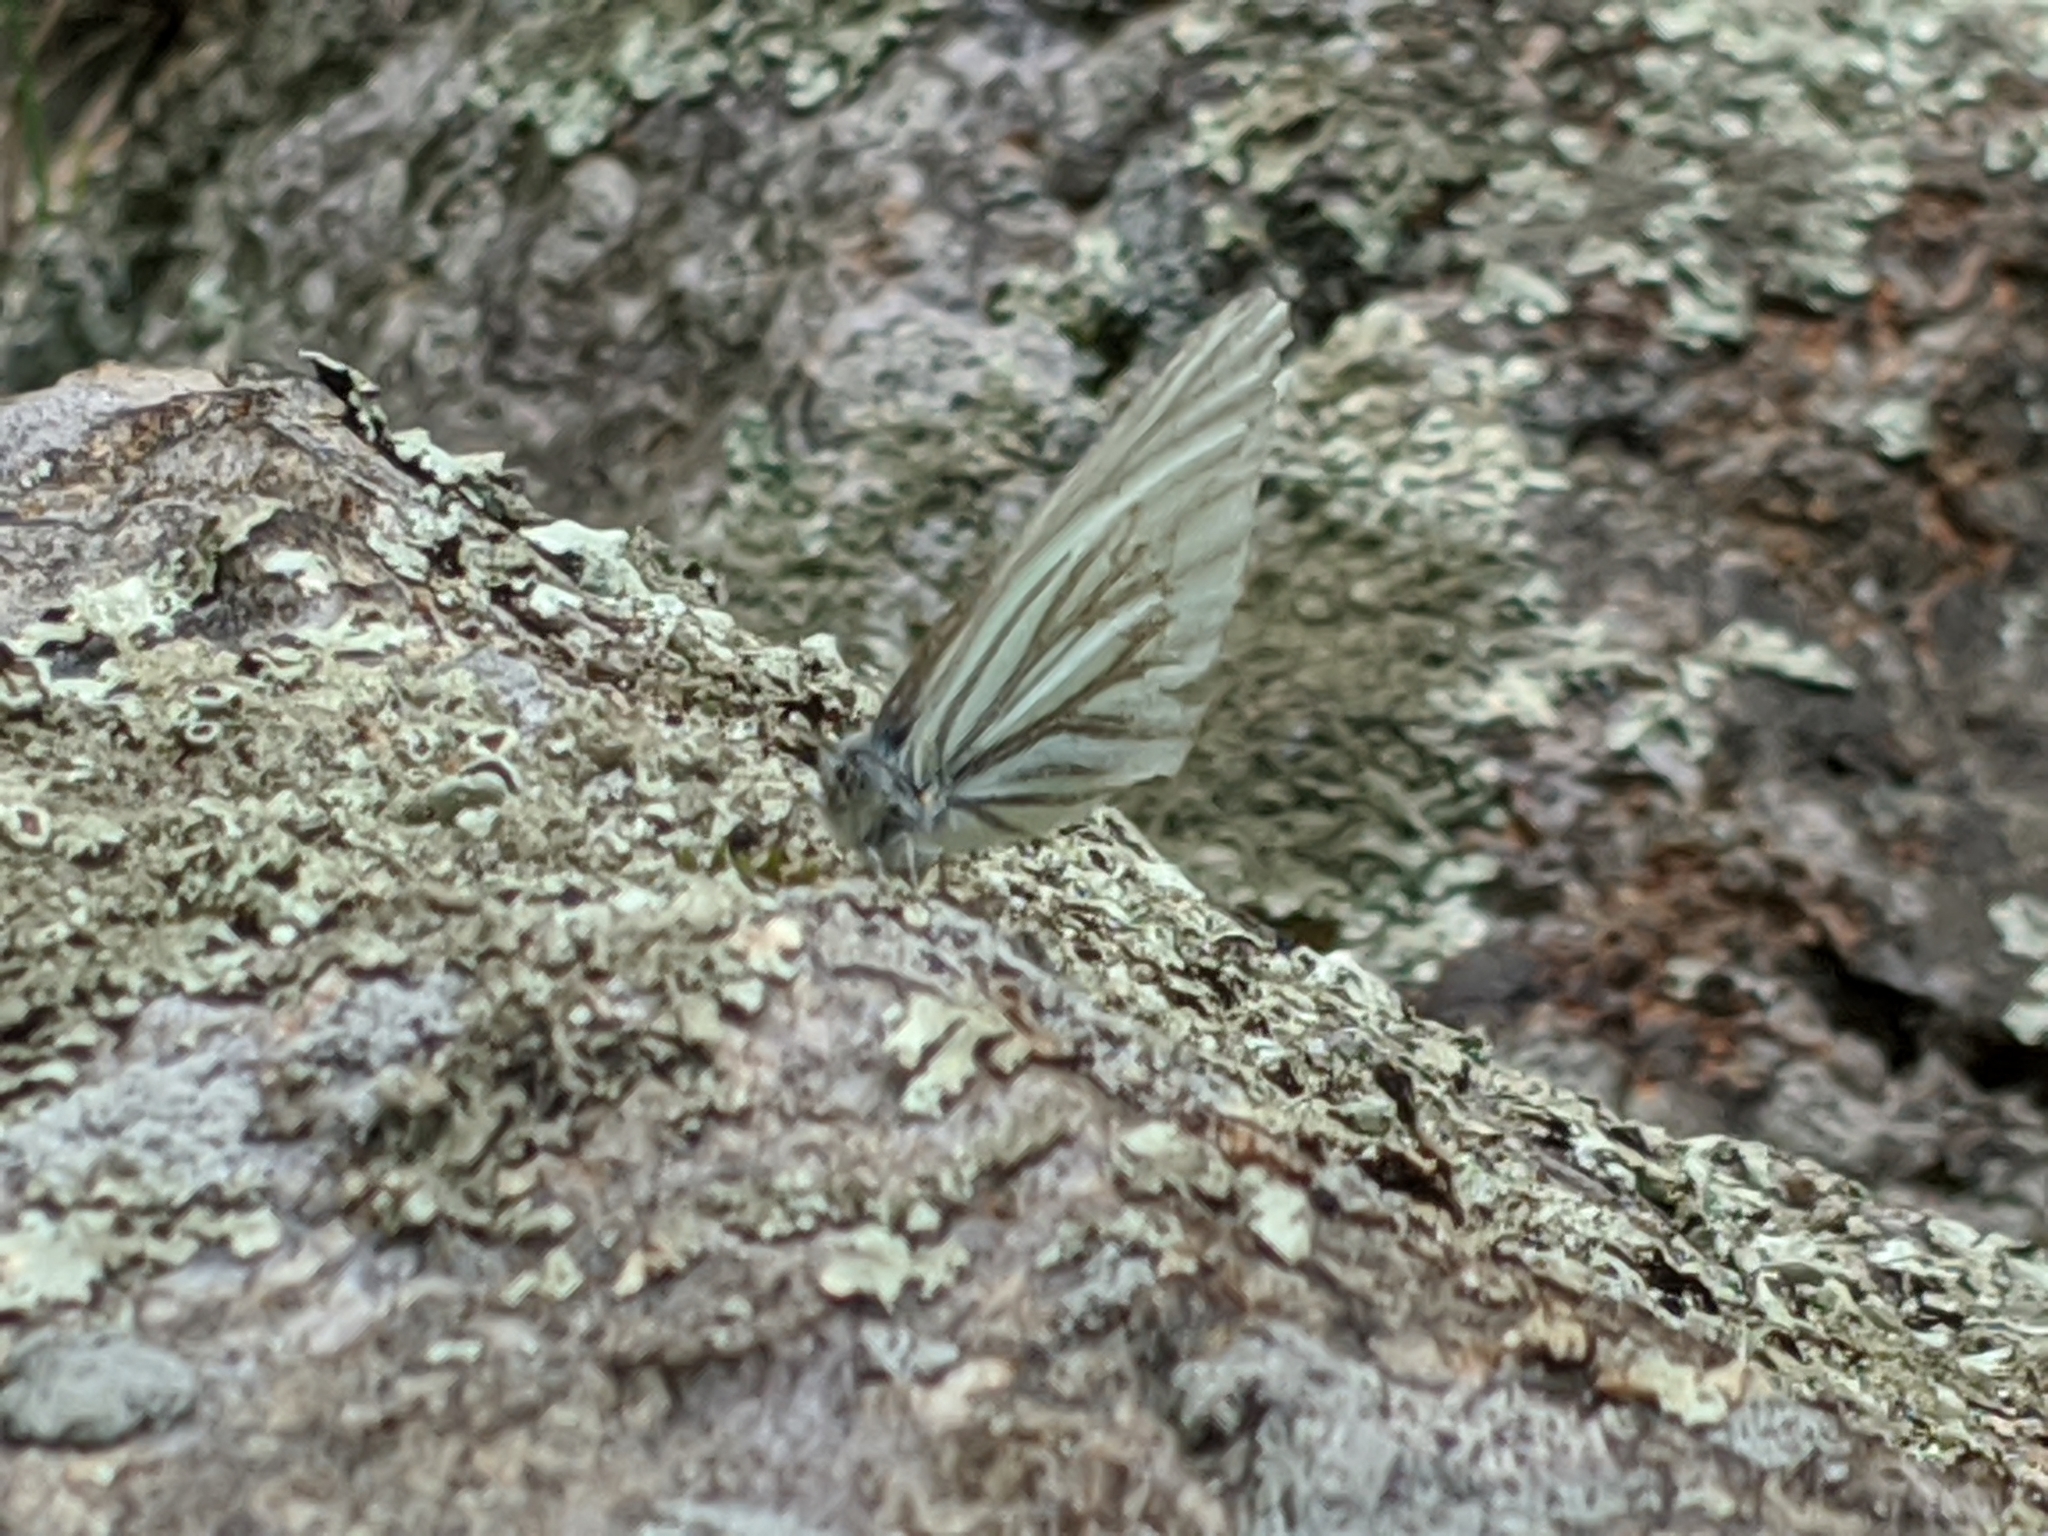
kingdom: Animalia
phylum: Arthropoda
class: Insecta
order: Lepidoptera
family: Pieridae
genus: Pieris
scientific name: Pieris oleracea
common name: Mustard white
